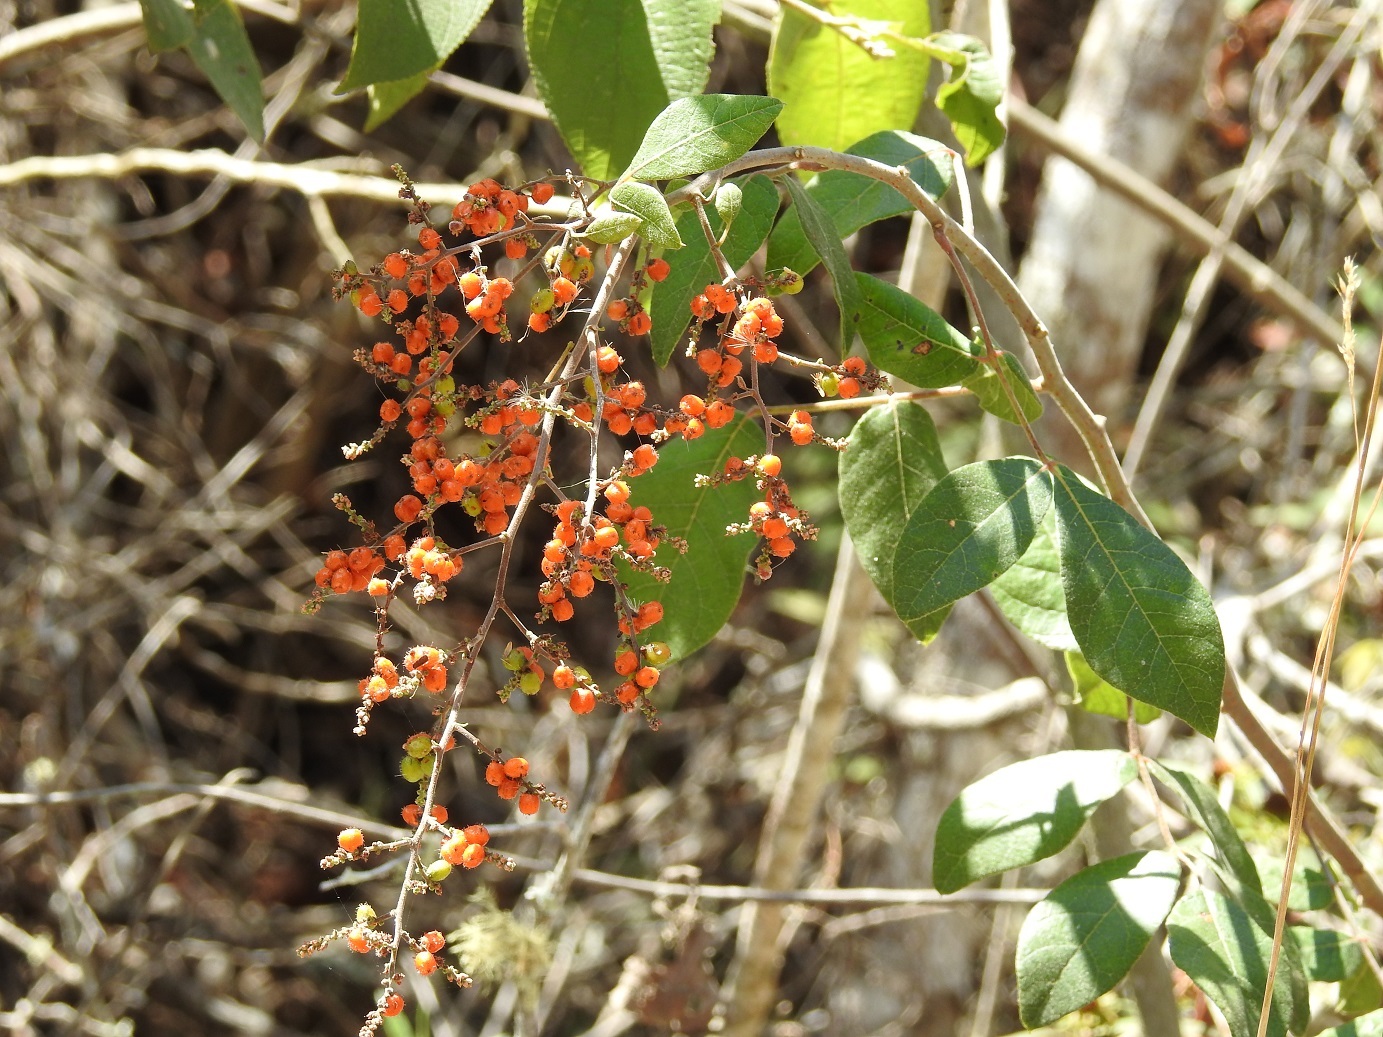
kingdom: Plantae
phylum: Tracheophyta
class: Magnoliopsida
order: Sapindales
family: Anacardiaceae
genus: Rhus
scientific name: Rhus terebinthifolia
